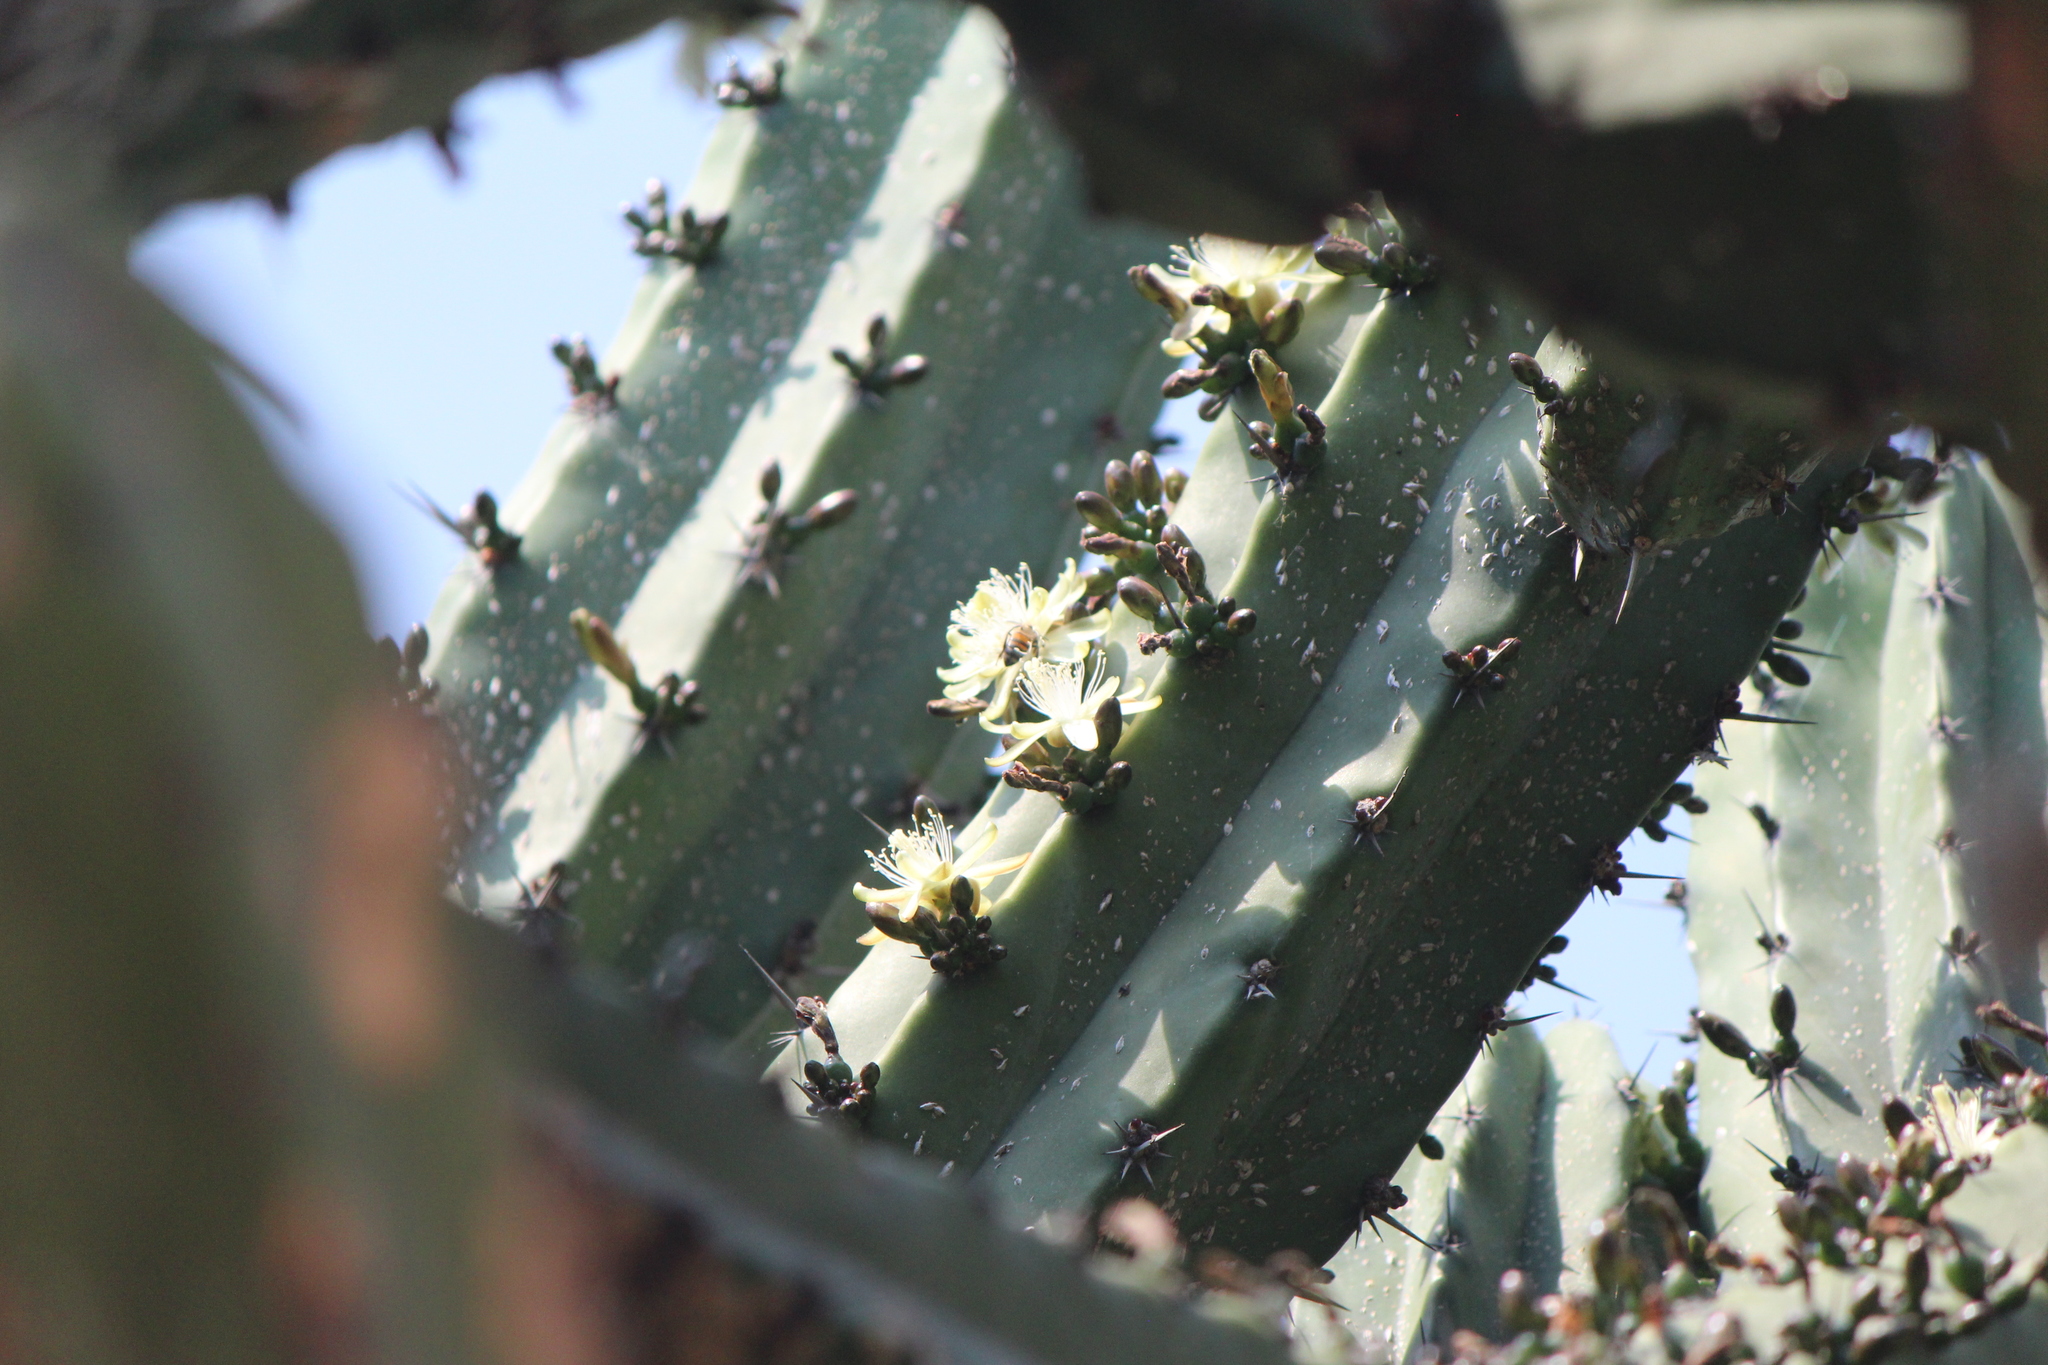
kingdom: Plantae
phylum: Tracheophyta
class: Magnoliopsida
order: Caryophyllales
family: Cactaceae
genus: Myrtillocactus
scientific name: Myrtillocactus geometrizans
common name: Bilberry cactus
